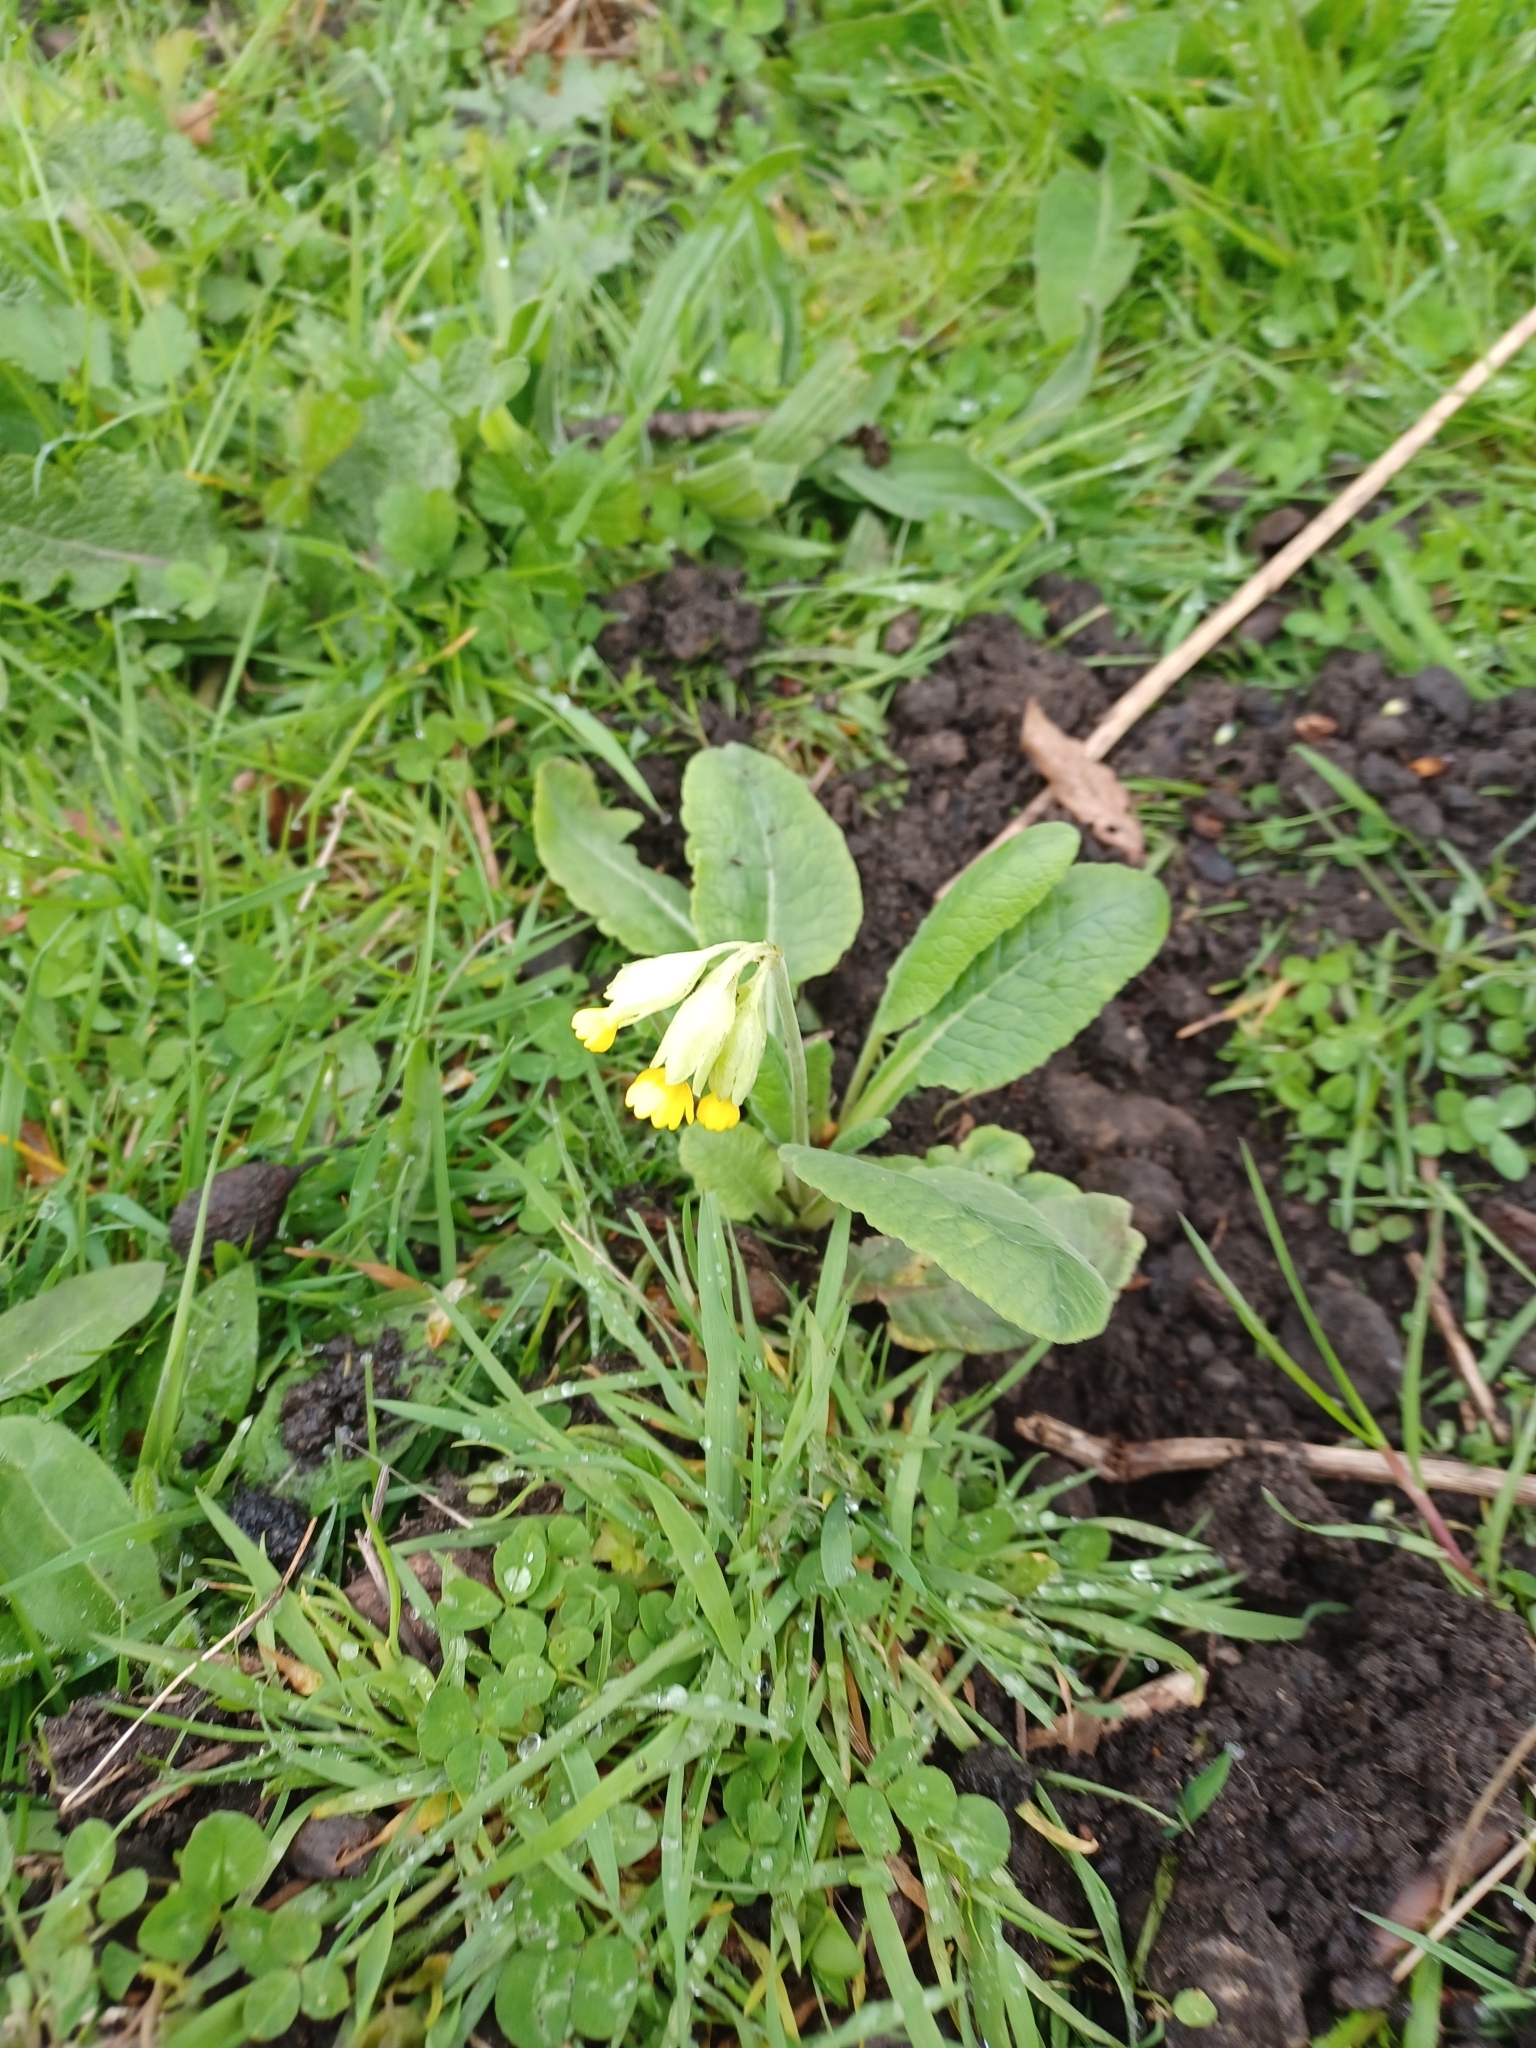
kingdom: Plantae
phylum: Tracheophyta
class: Magnoliopsida
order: Ericales
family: Primulaceae
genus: Primula
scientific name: Primula veris
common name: Cowslip
